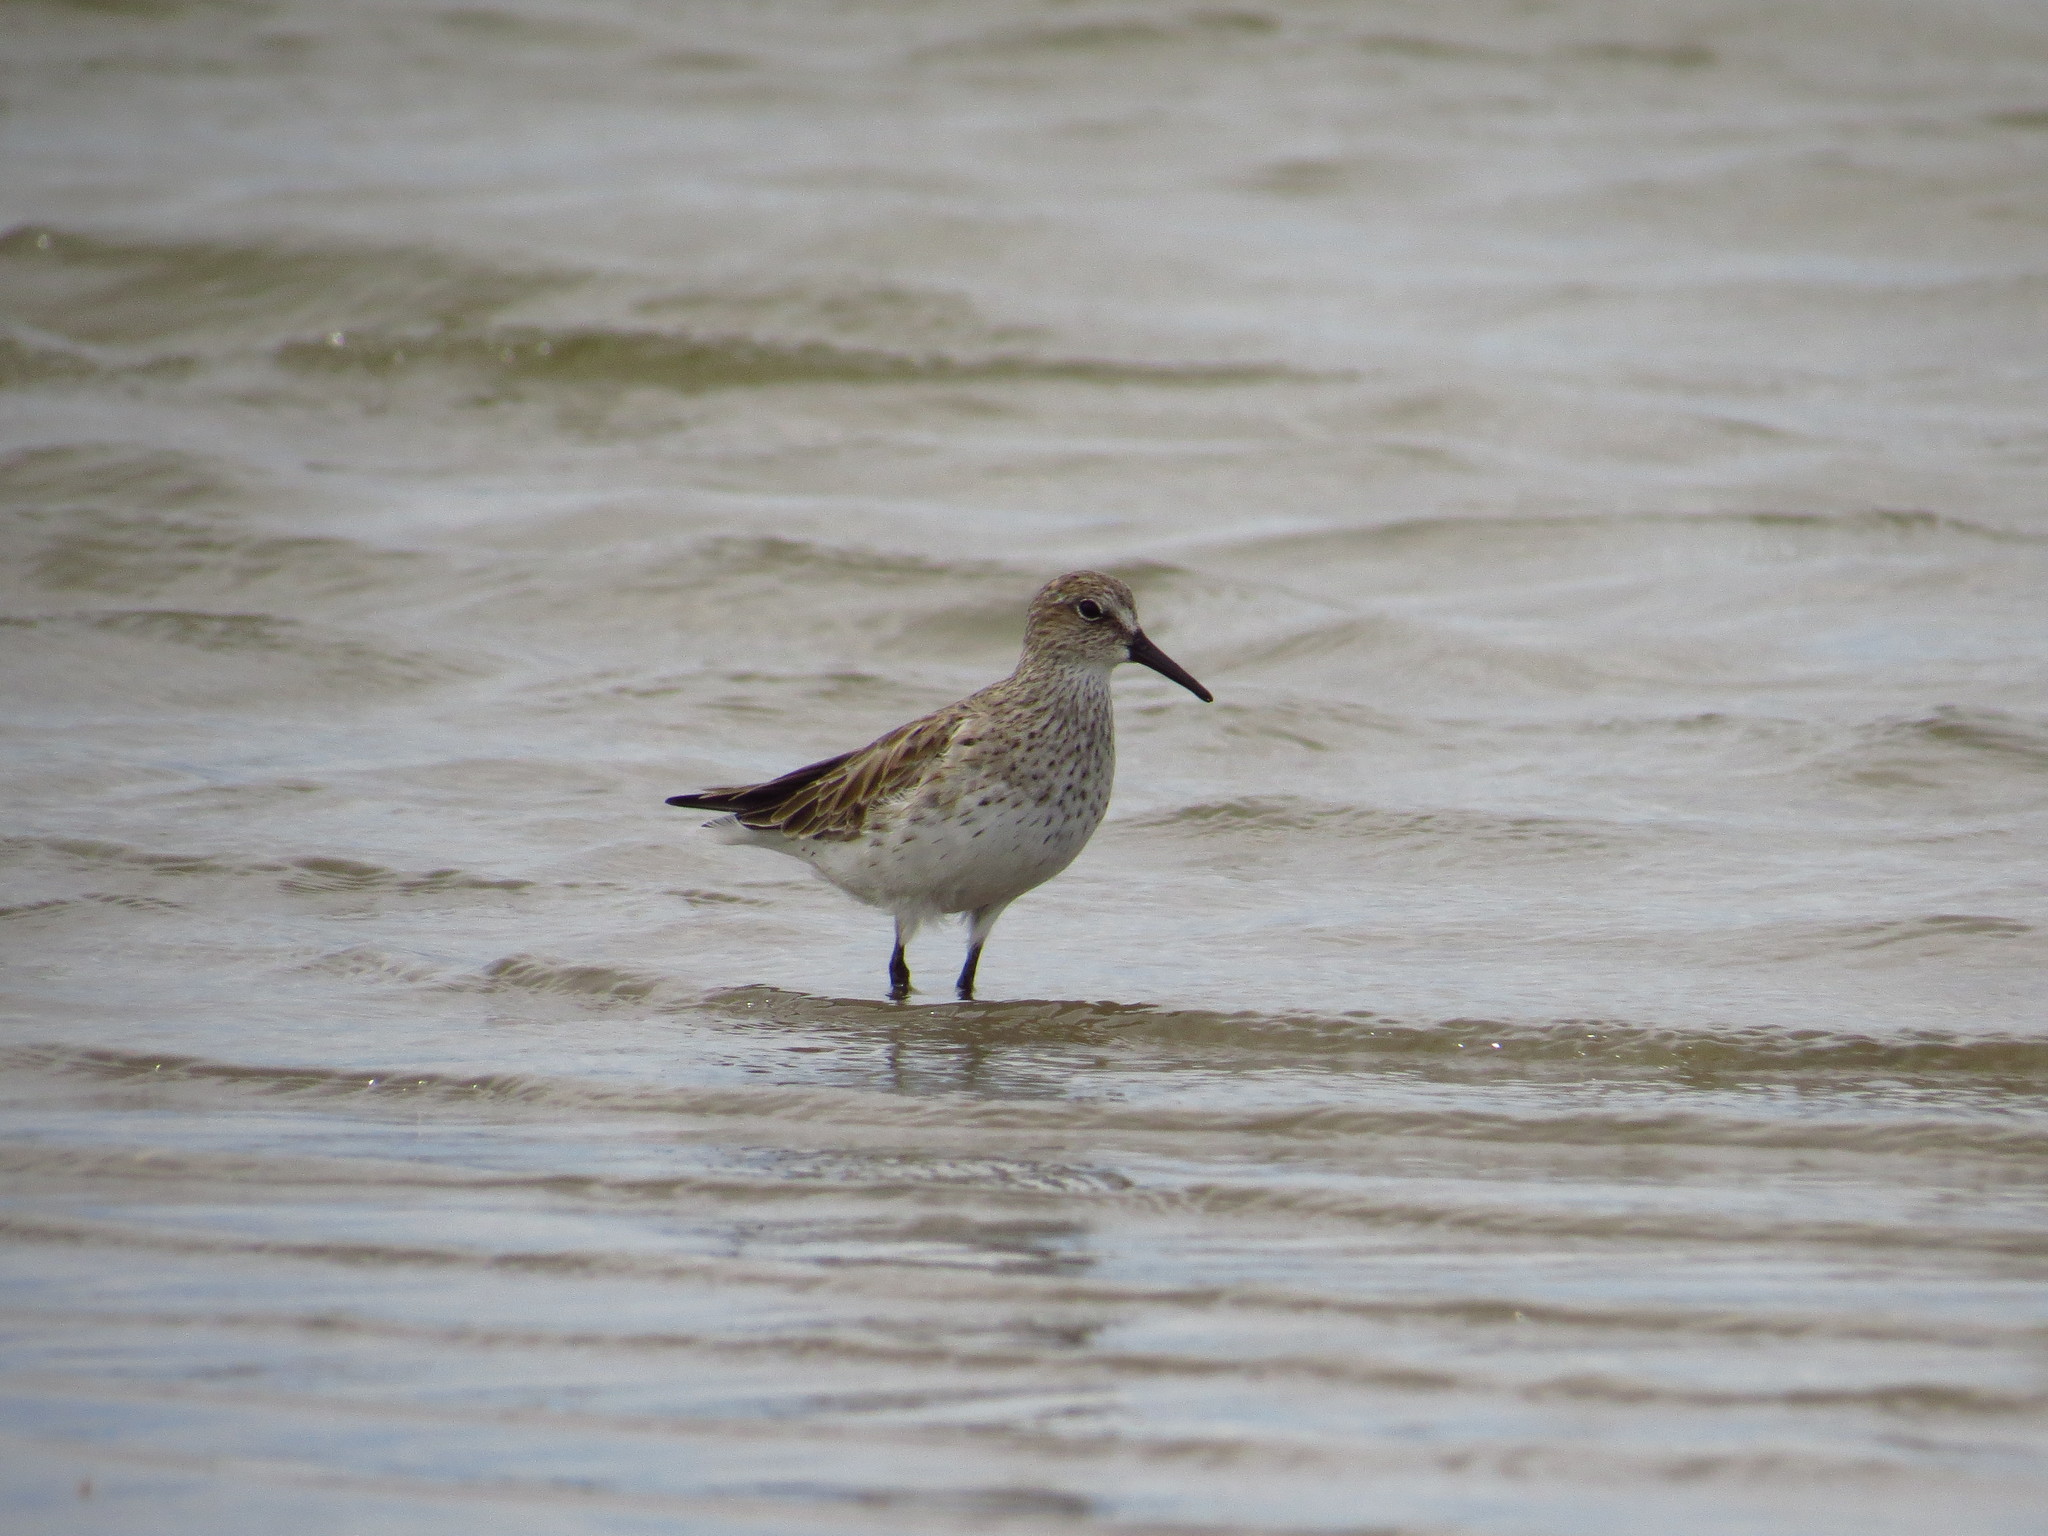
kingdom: Animalia
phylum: Chordata
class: Aves
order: Charadriiformes
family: Scolopacidae
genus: Calidris
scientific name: Calidris fuscicollis
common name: White-rumped sandpiper
